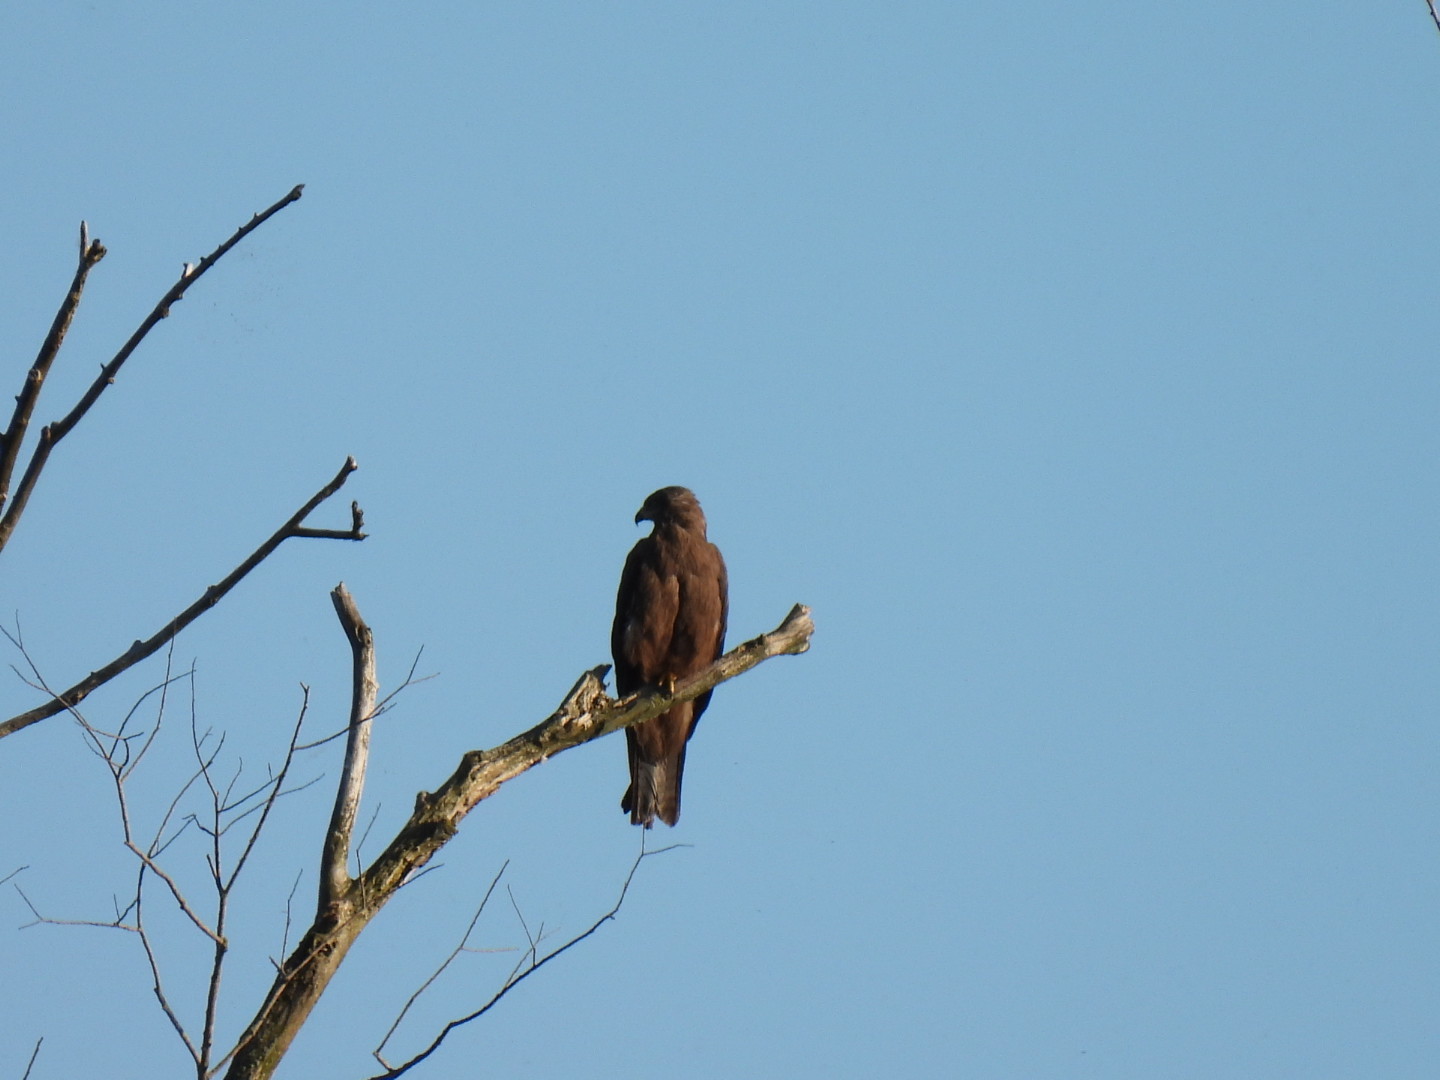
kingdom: Animalia
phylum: Chordata
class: Aves
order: Accipitriformes
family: Accipitridae
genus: Milvus
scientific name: Milvus migrans
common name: Black kite
